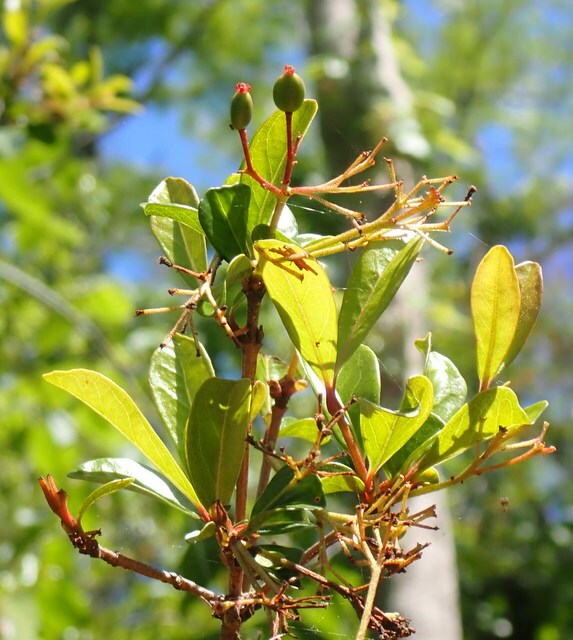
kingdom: Plantae
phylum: Tracheophyta
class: Magnoliopsida
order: Dipsacales
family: Viburnaceae
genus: Viburnum
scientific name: Viburnum obovatum
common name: Walter's viburnum
